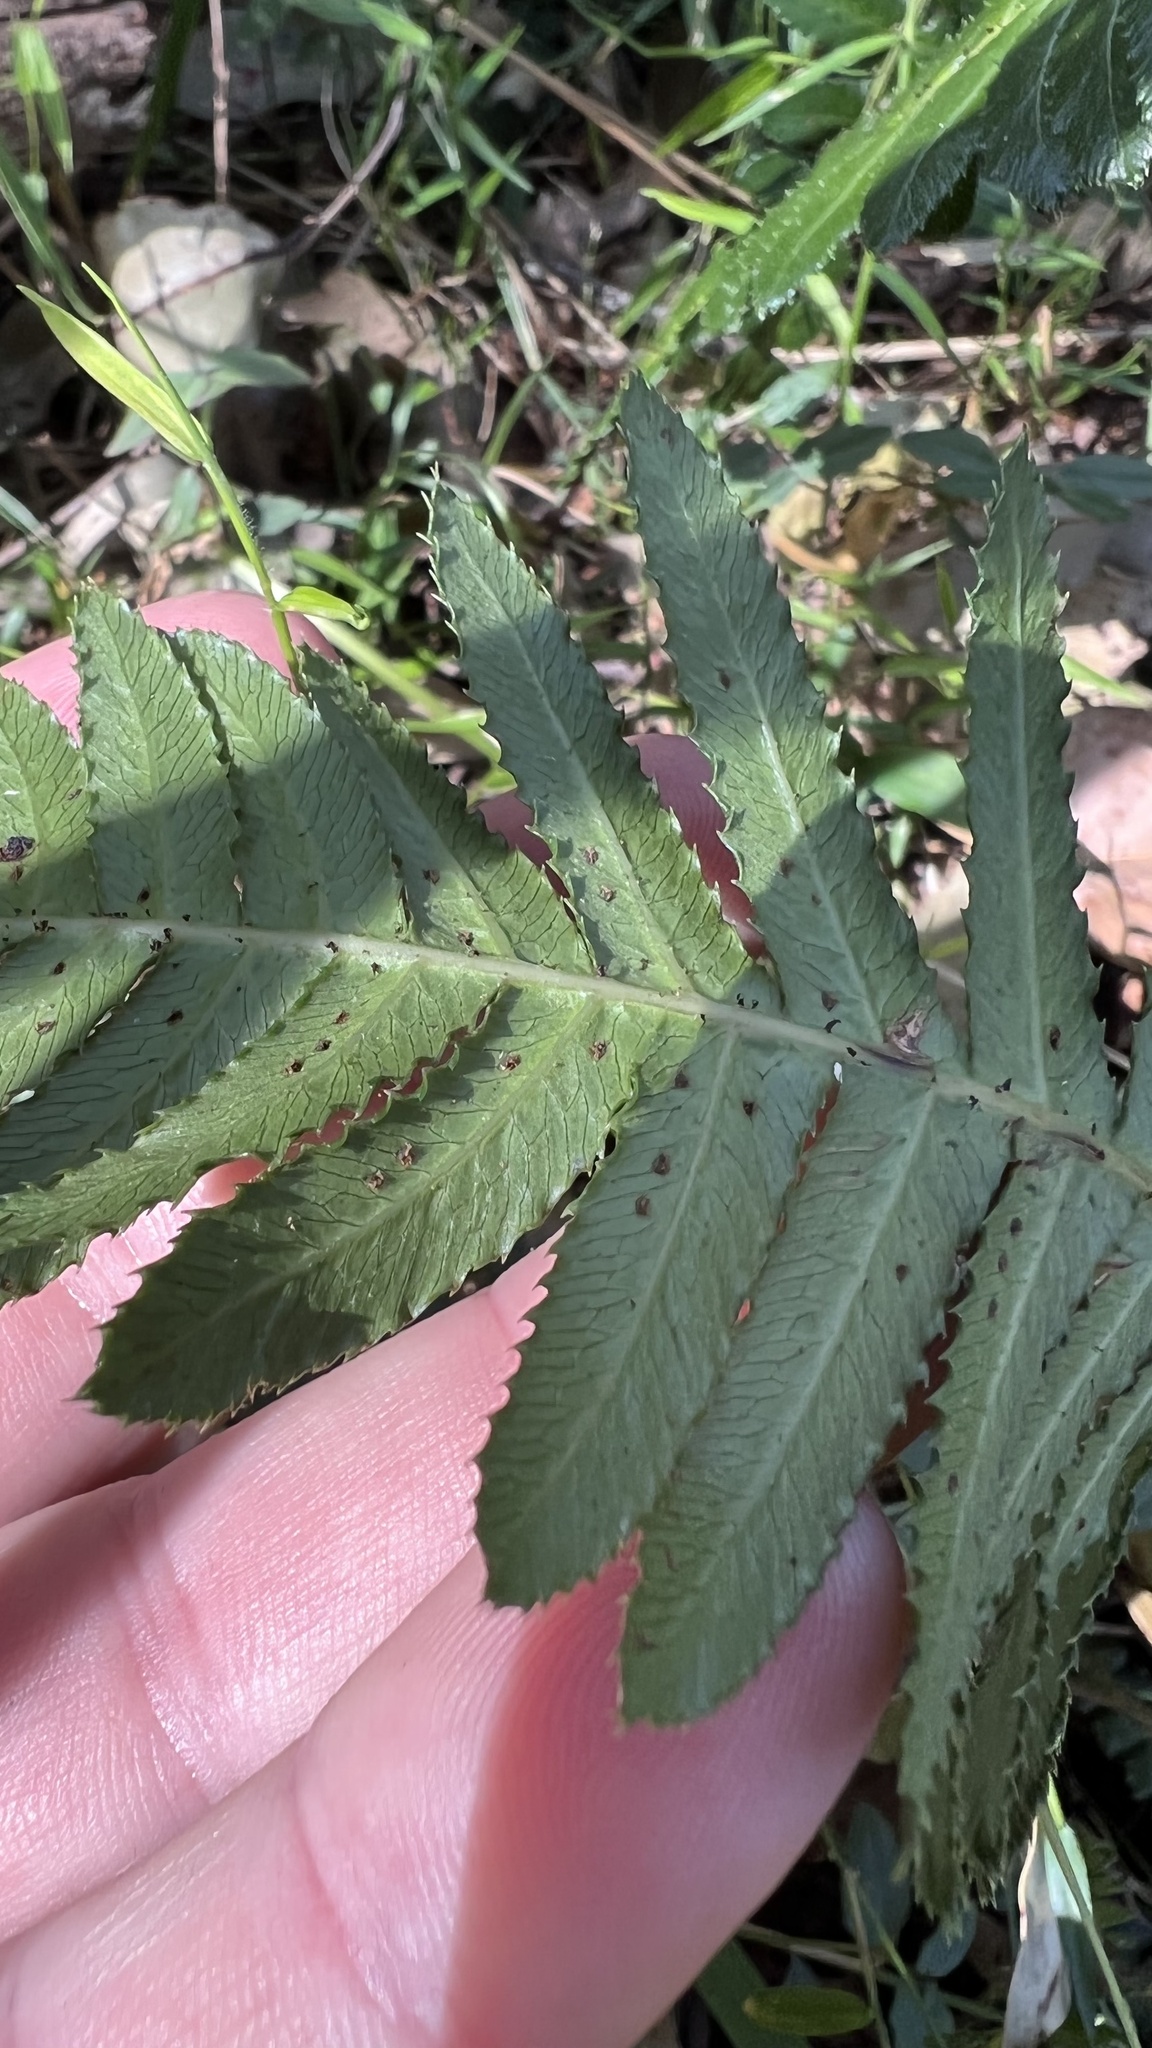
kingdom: Plantae
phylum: Tracheophyta
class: Polypodiopsida
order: Polypodiales
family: Blechnaceae
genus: Doodia
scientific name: Doodia aspera
